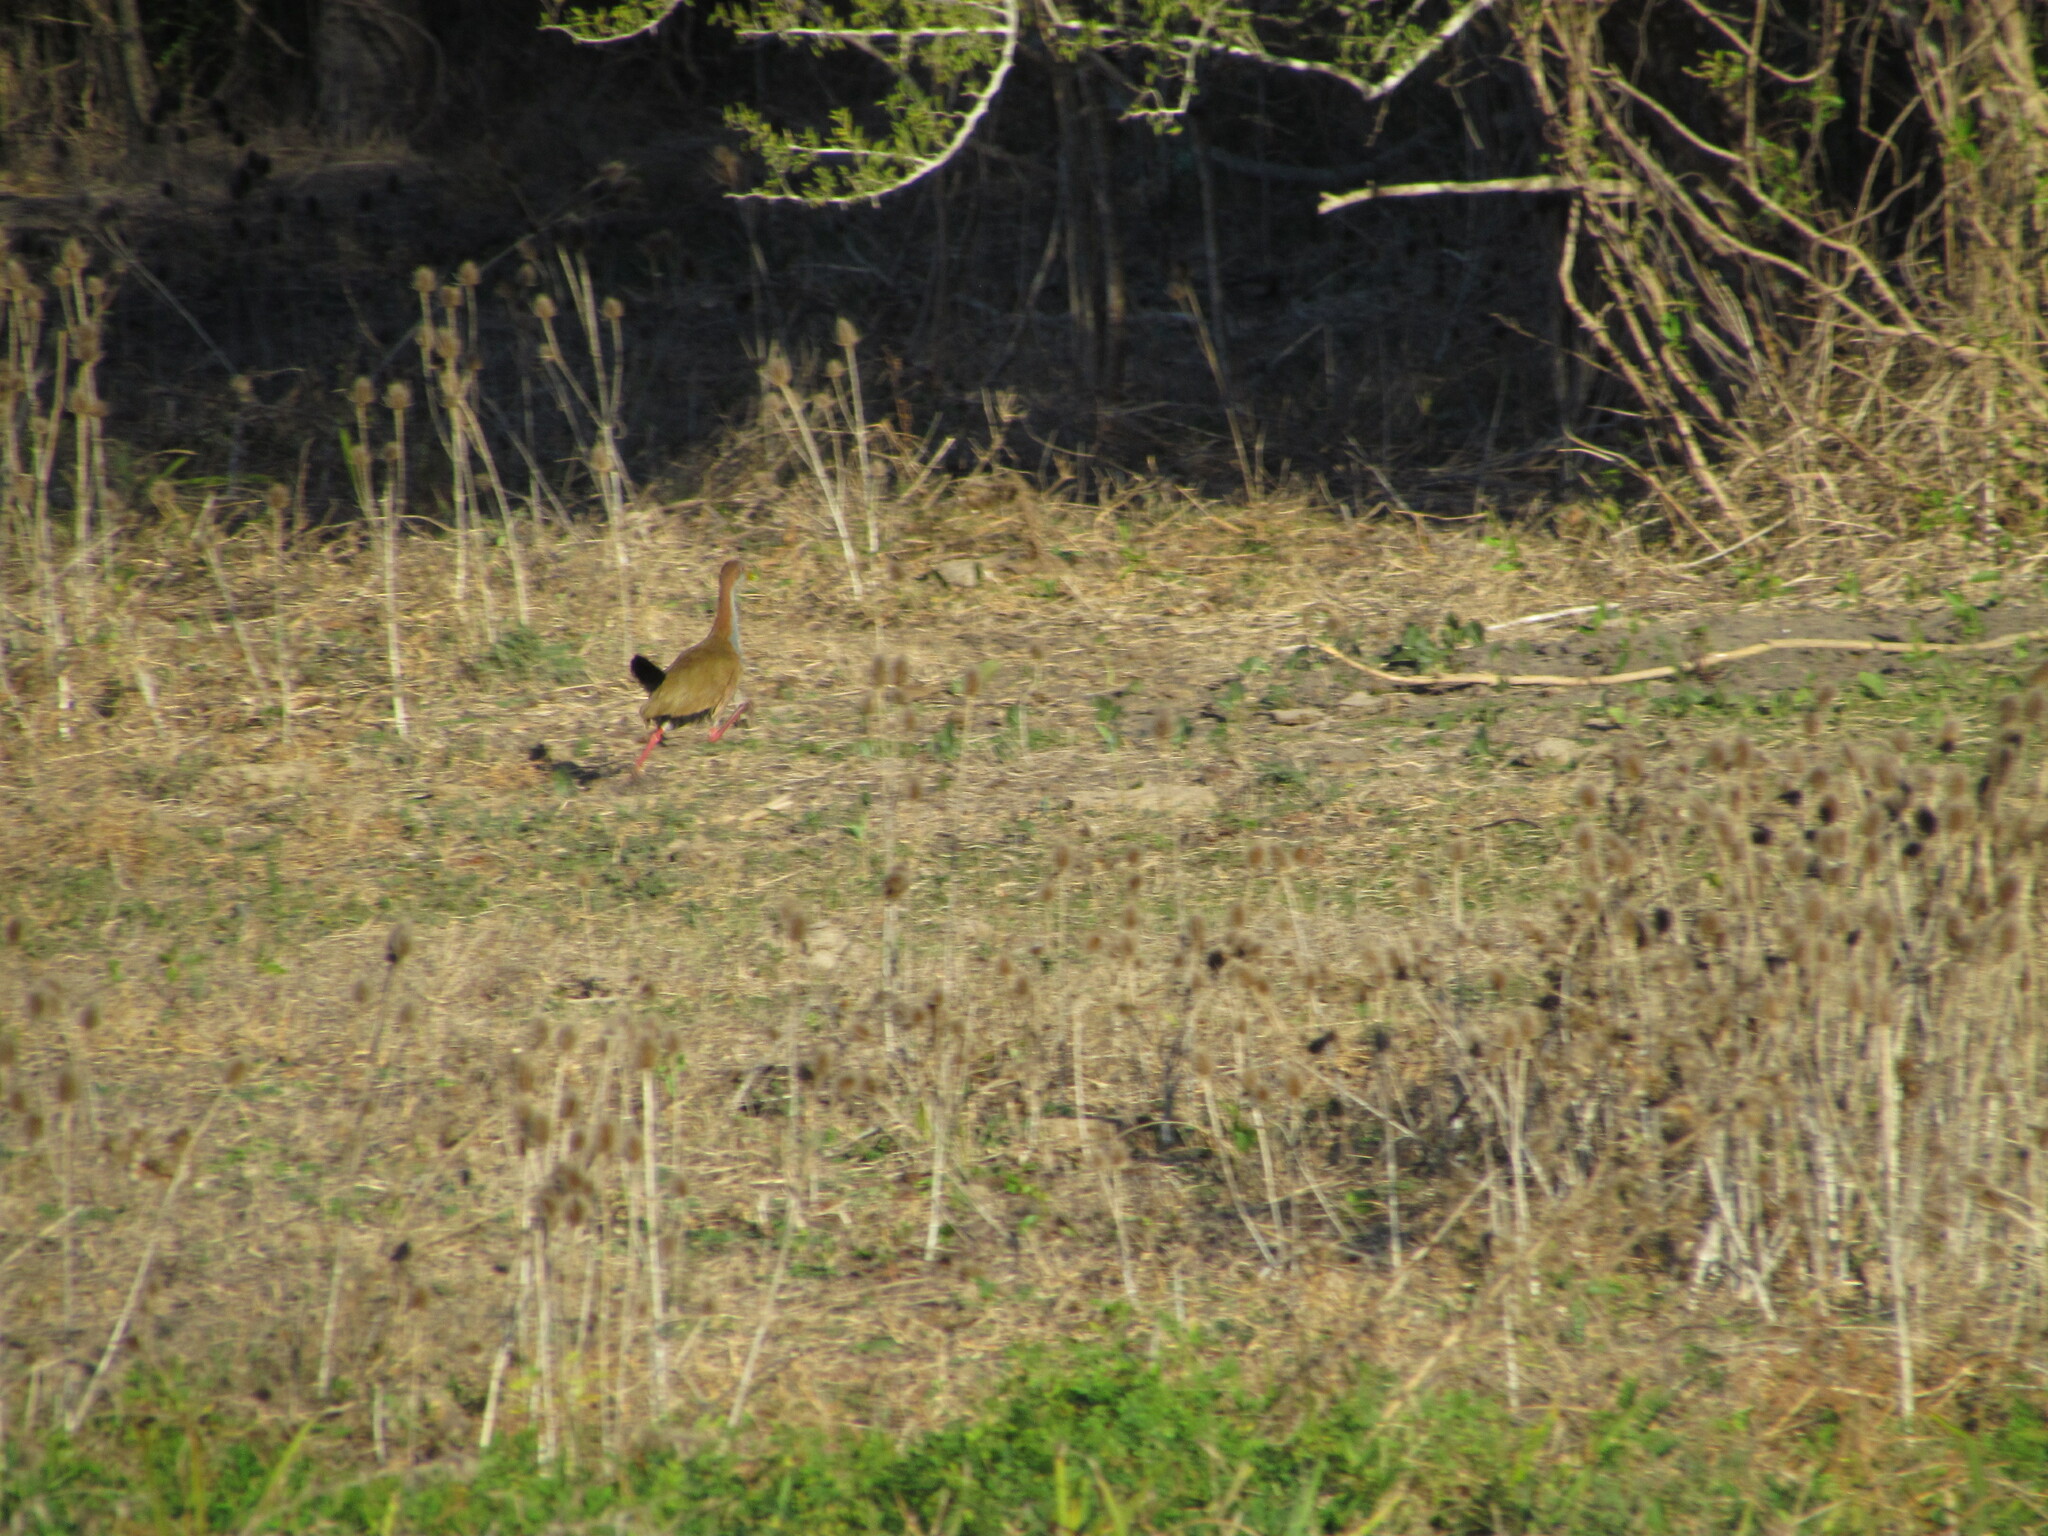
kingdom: Animalia
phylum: Chordata
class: Aves
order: Gruiformes
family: Rallidae
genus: Aramides
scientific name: Aramides ypecaha
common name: Giant wood rail
